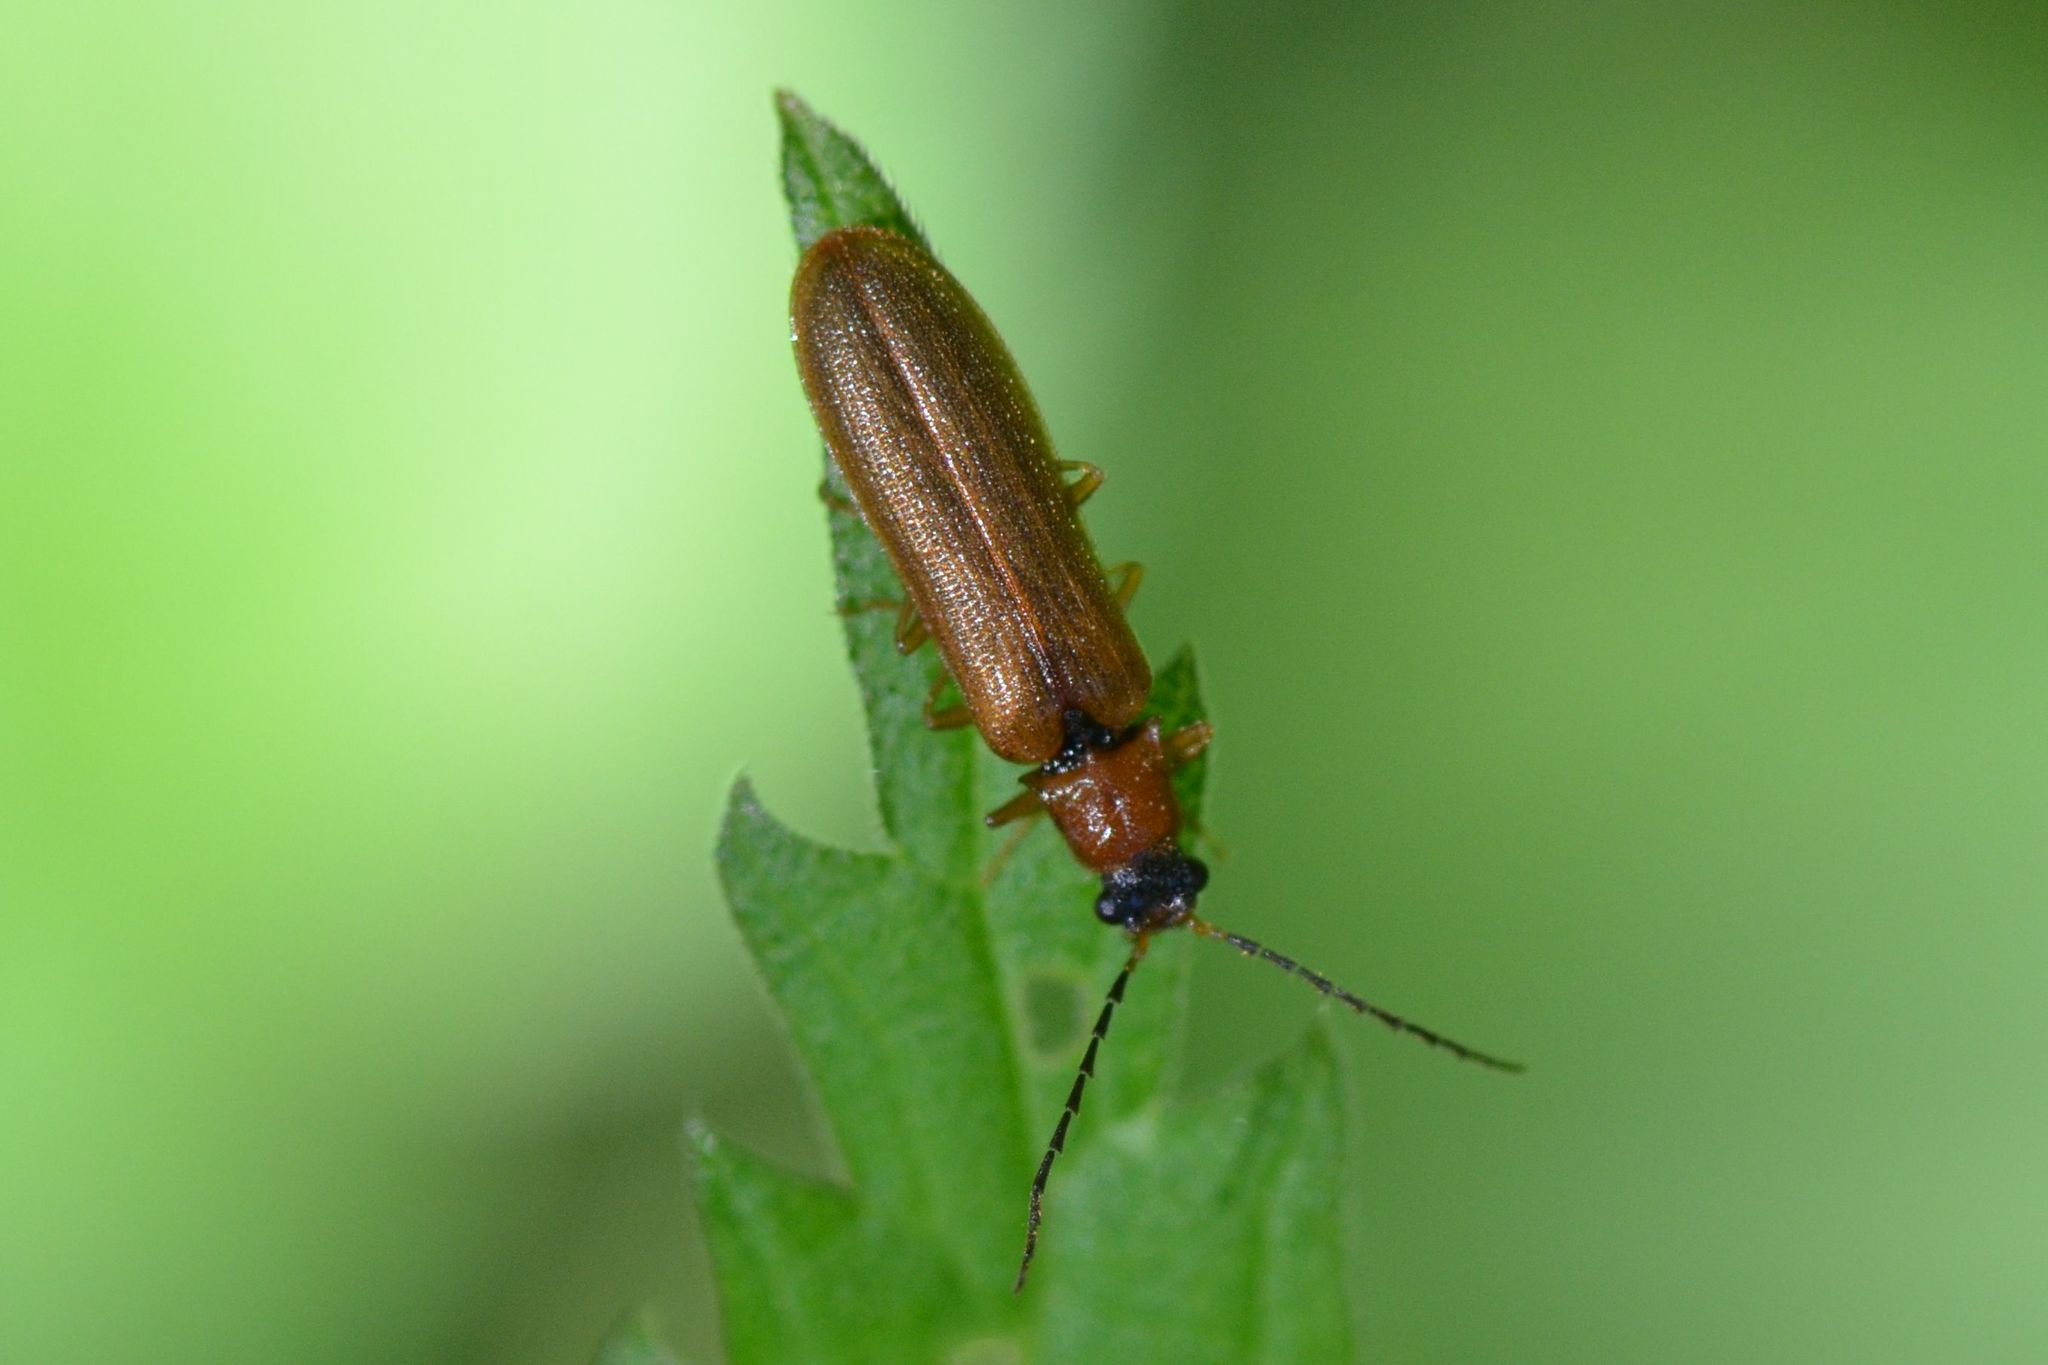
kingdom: Animalia
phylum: Arthropoda
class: Insecta
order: Coleoptera
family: Elateridae
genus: Denticollis
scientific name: Denticollis linearis
